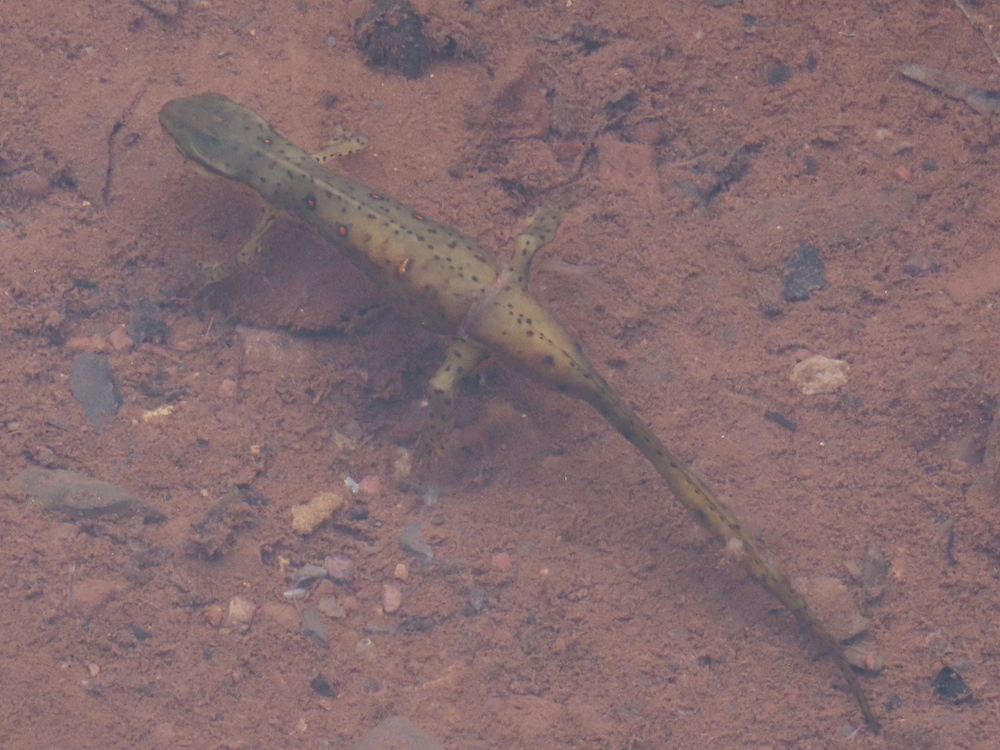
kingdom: Animalia
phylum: Chordata
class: Amphibia
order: Caudata
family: Salamandridae
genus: Notophthalmus
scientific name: Notophthalmus viridescens
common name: Eastern newt
